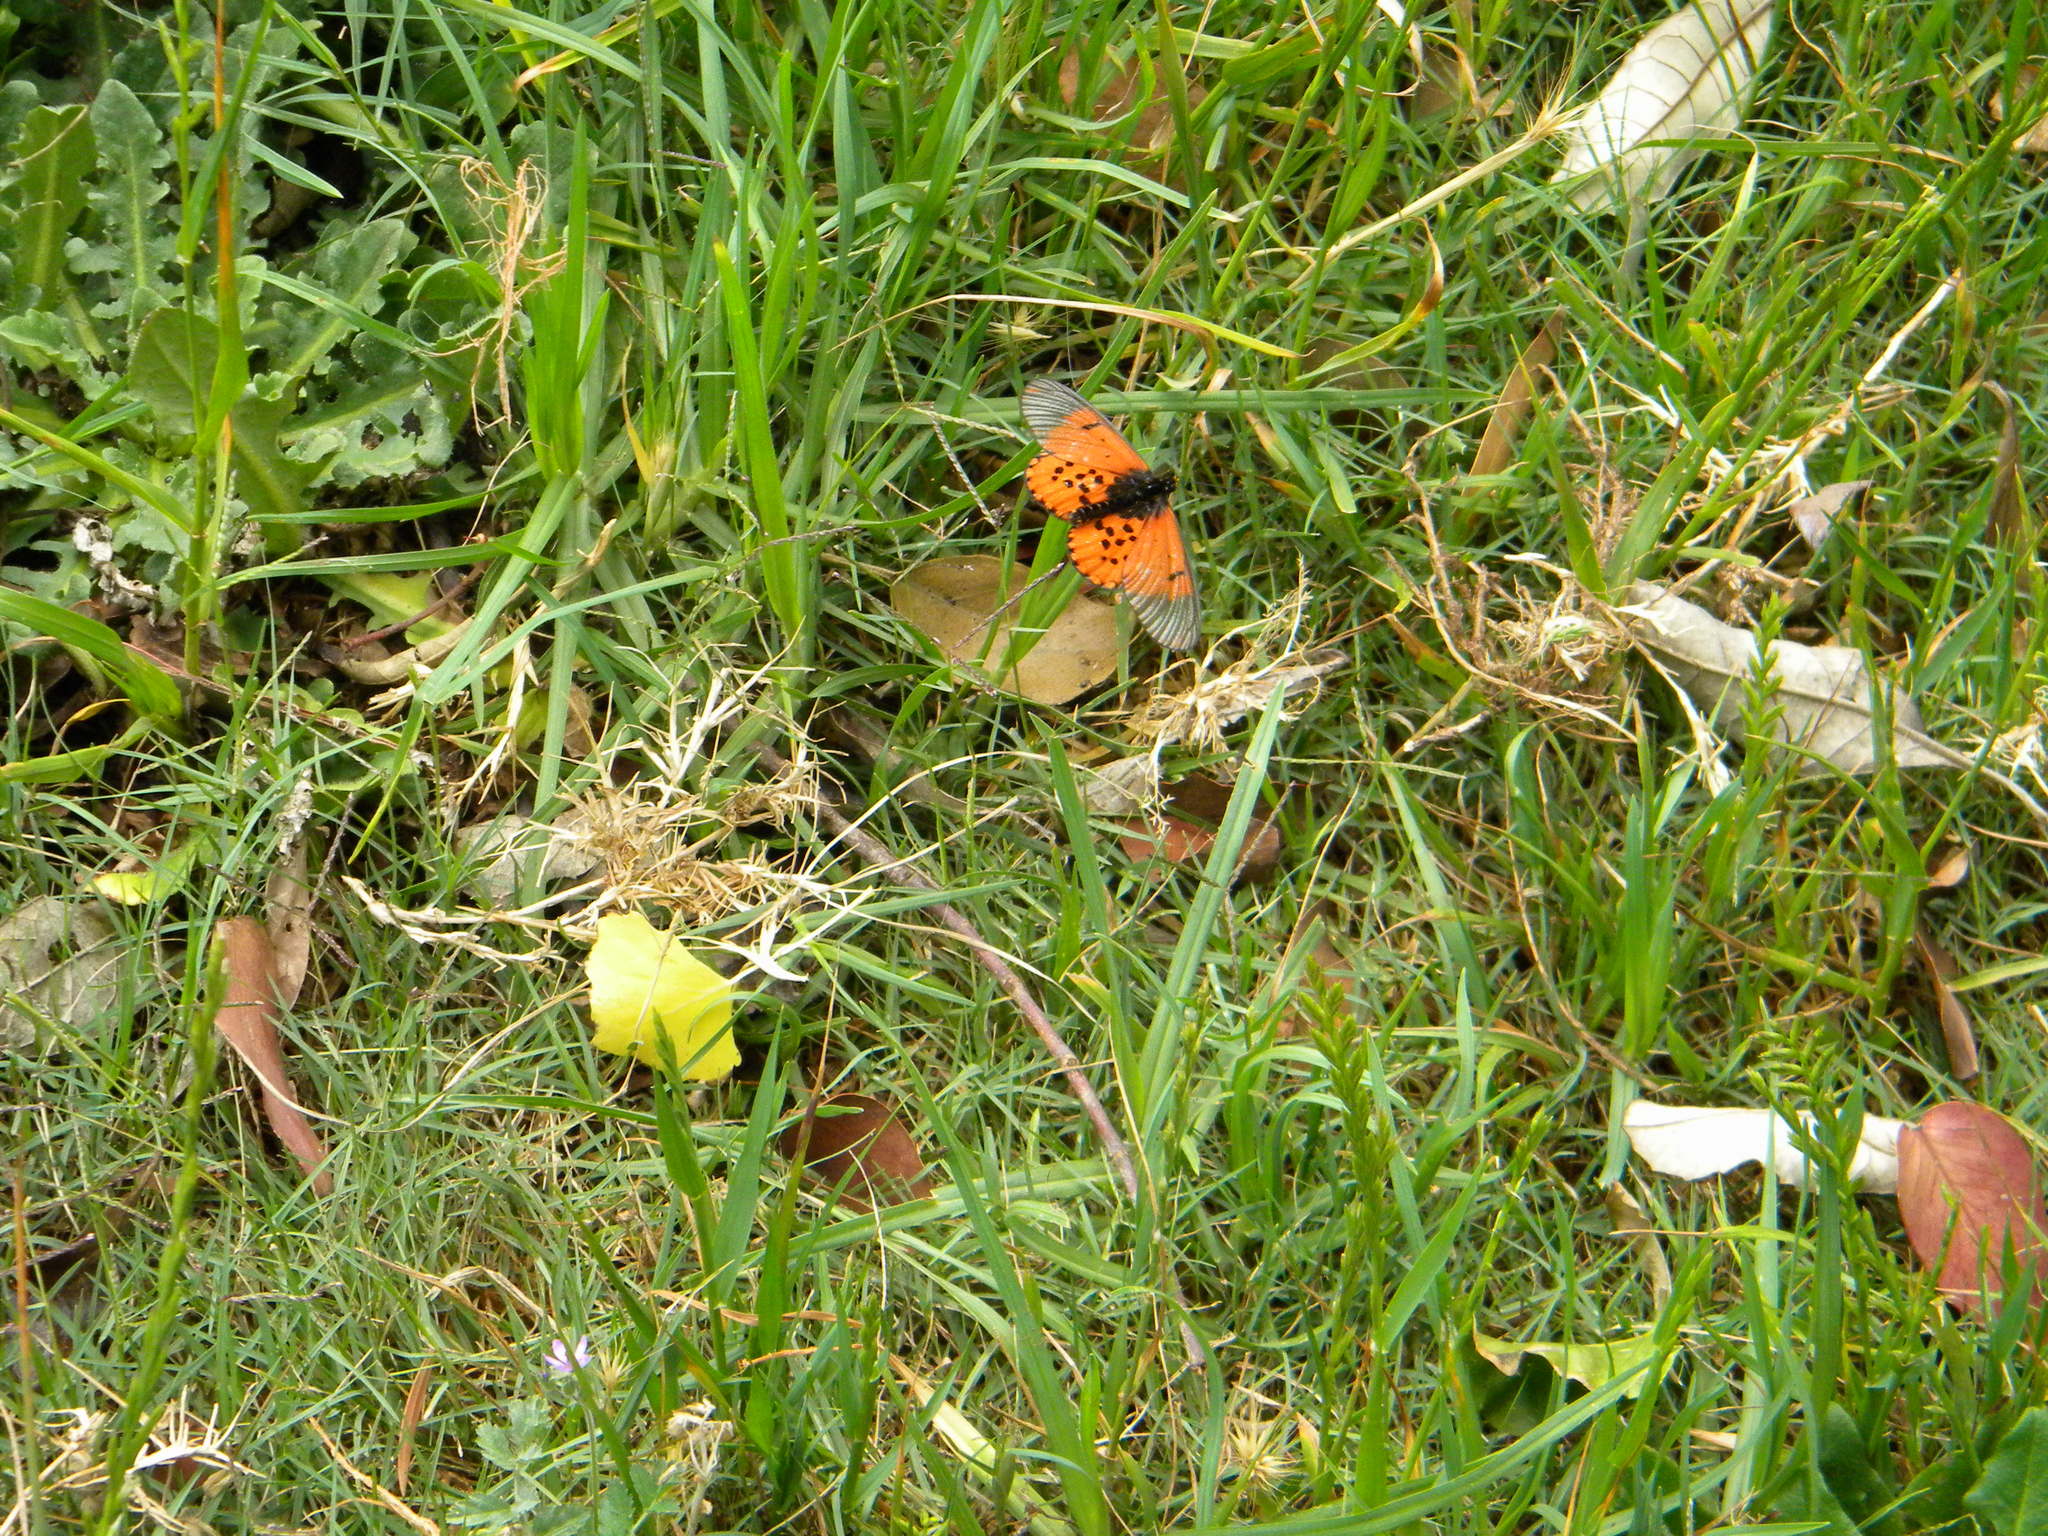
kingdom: Animalia
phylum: Arthropoda
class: Insecta
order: Lepidoptera
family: Nymphalidae
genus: Acraea
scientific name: Acraea horta
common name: Garden acraea
